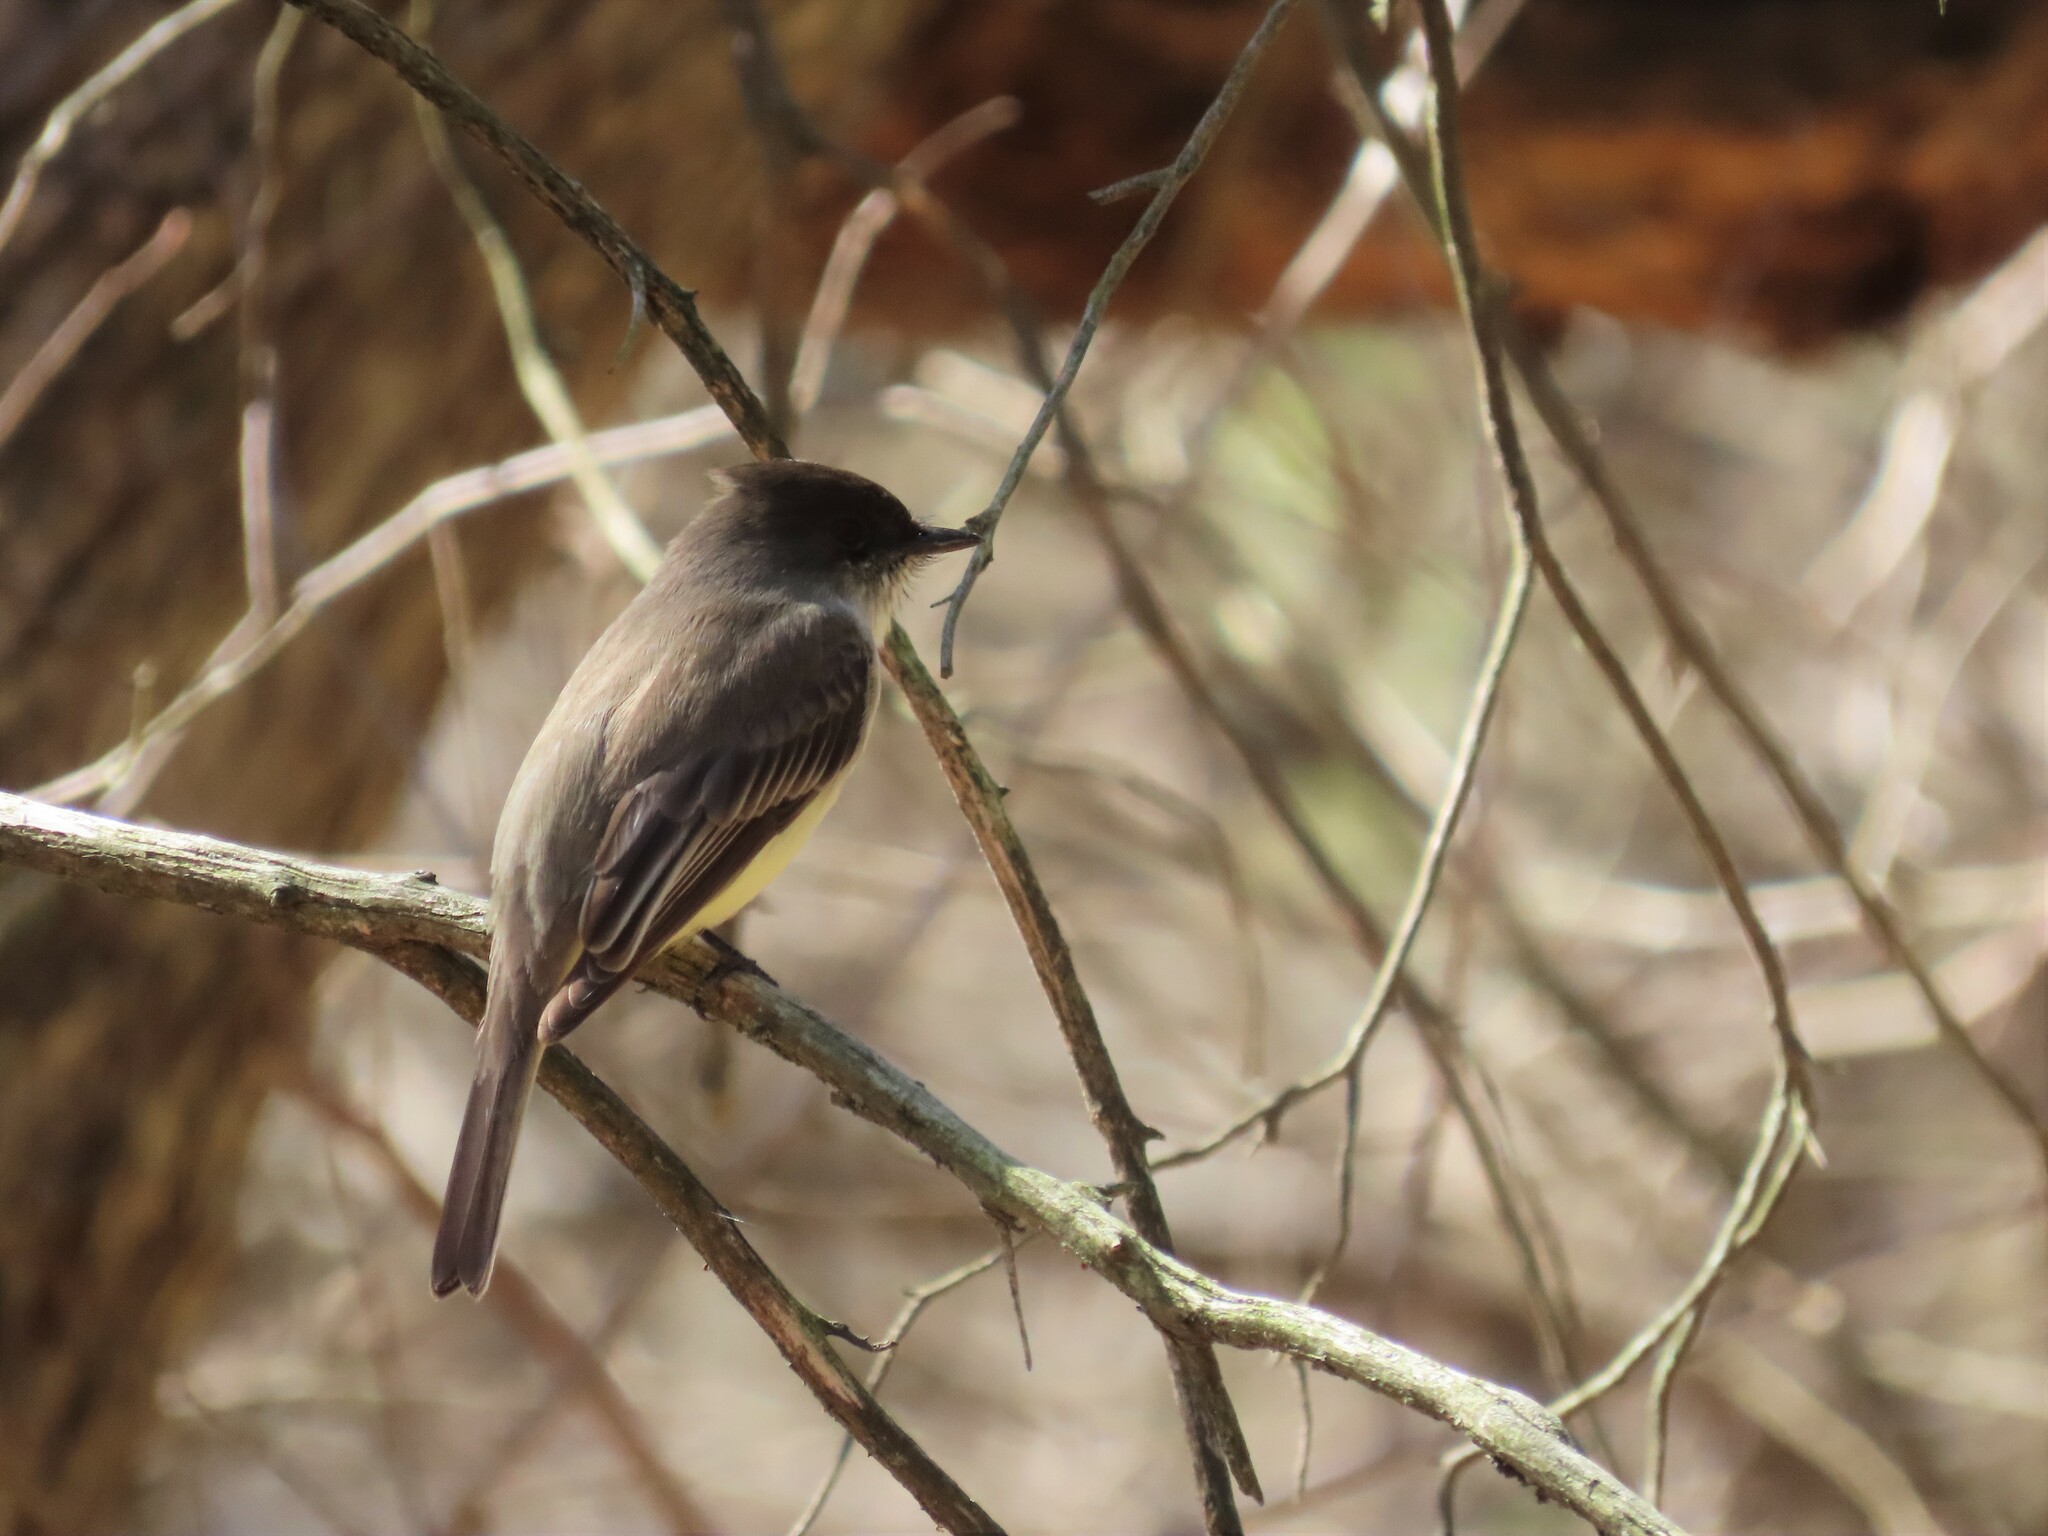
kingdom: Animalia
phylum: Chordata
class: Aves
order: Passeriformes
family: Tyrannidae
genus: Sayornis
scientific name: Sayornis phoebe
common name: Eastern phoebe
